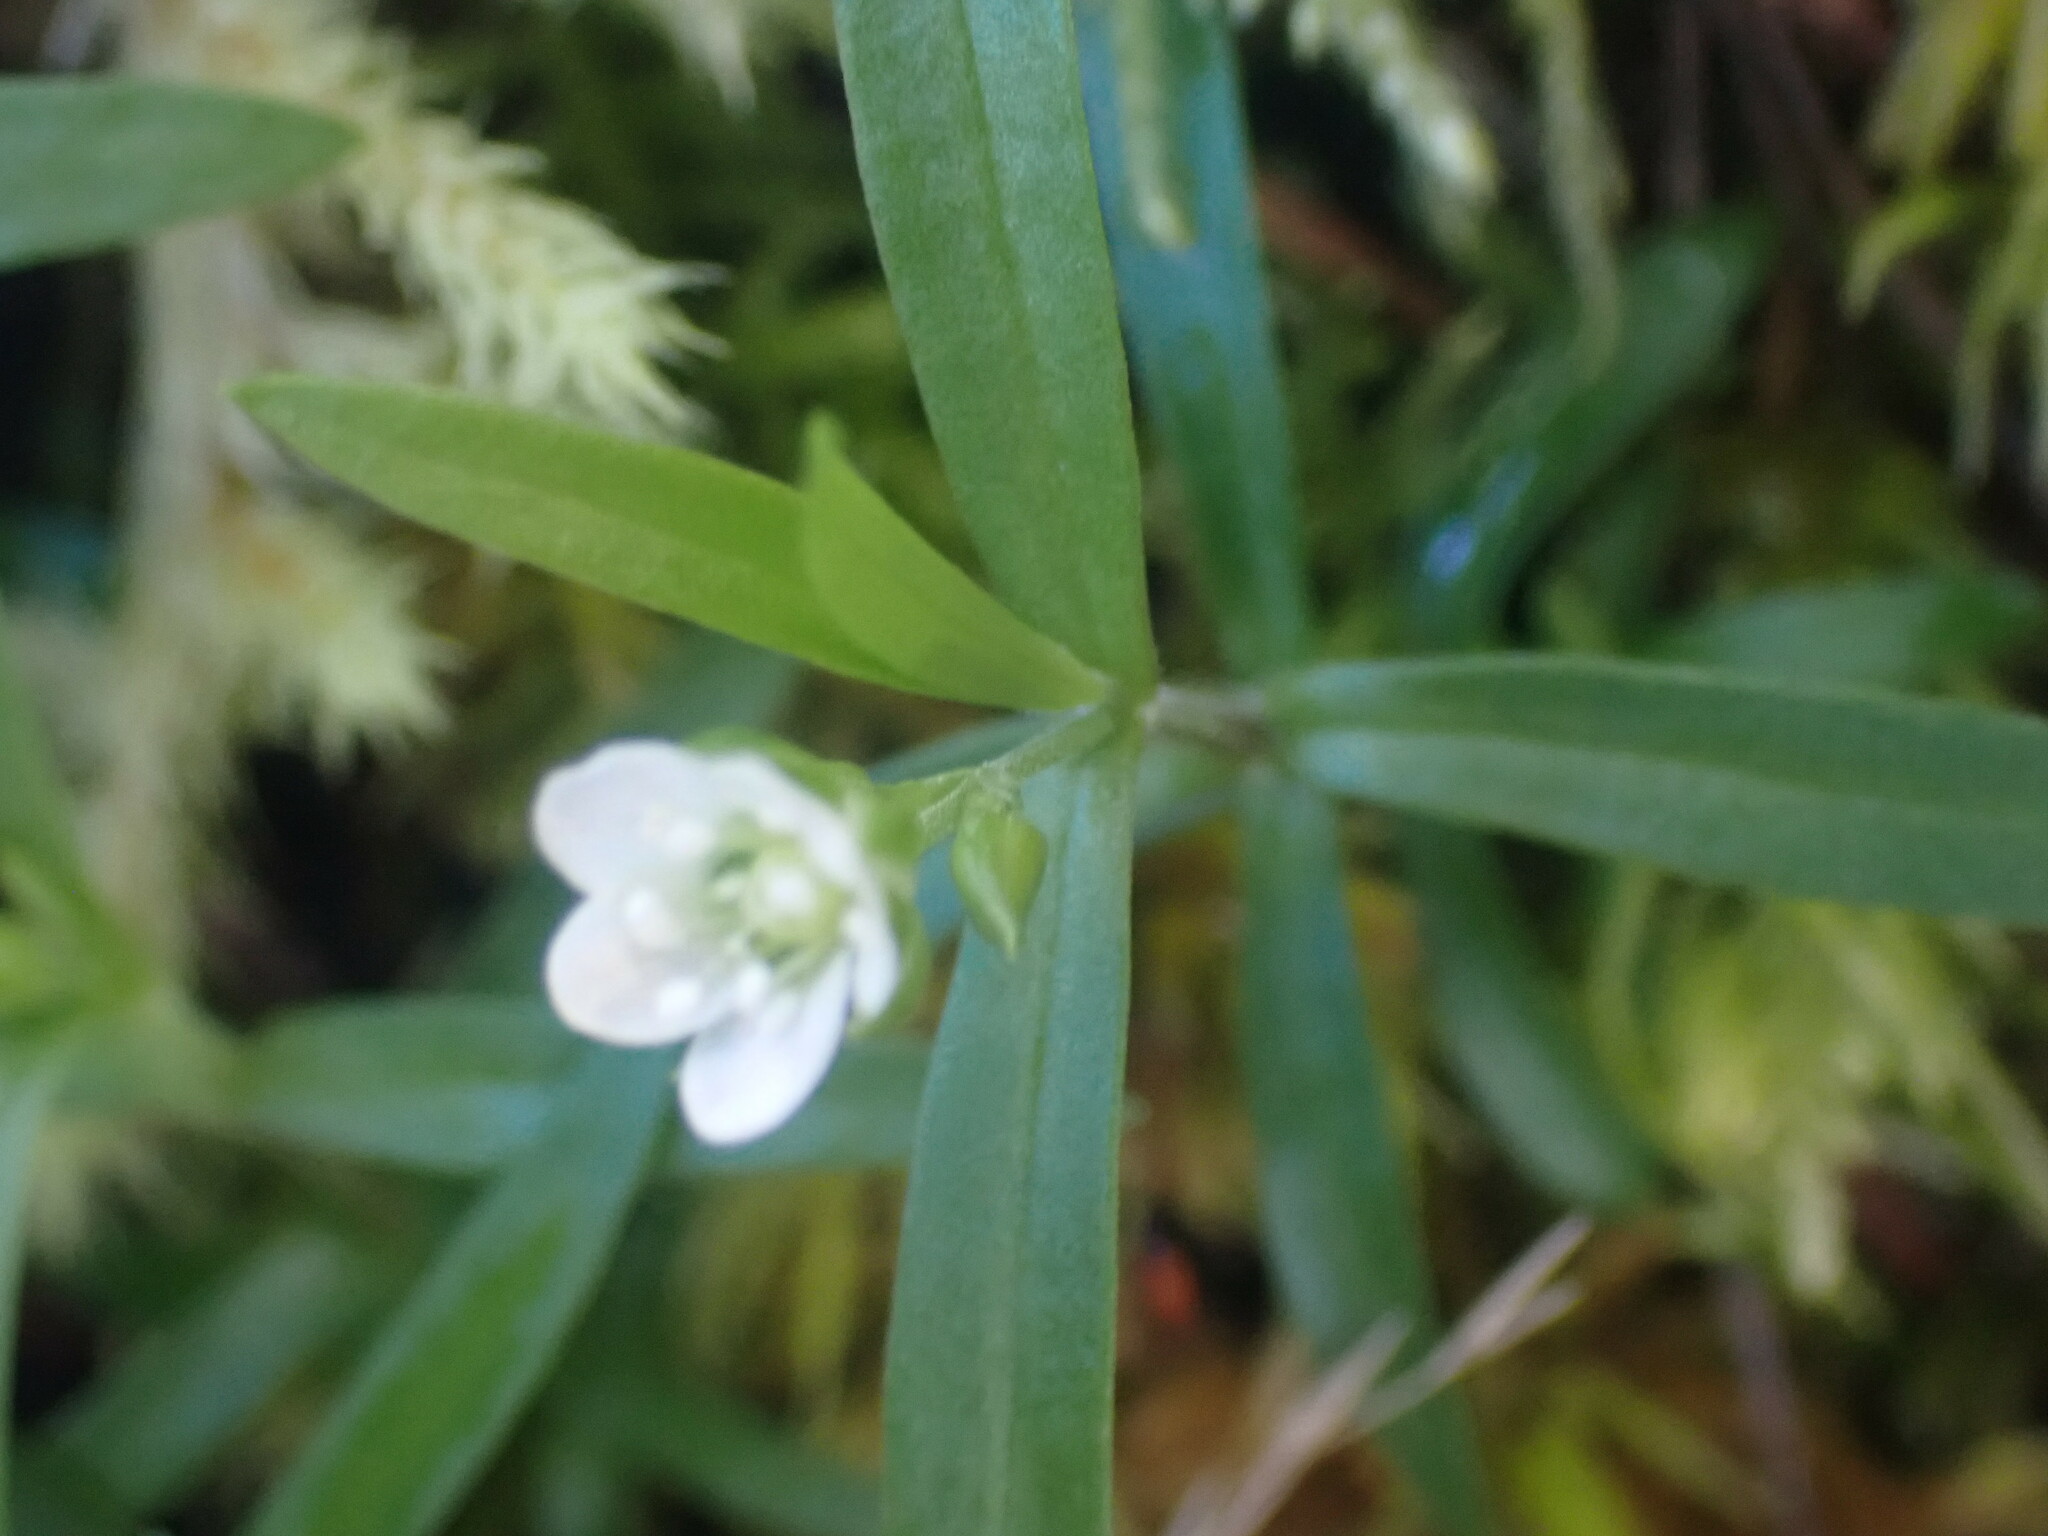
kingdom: Plantae
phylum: Tracheophyta
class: Magnoliopsida
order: Caryophyllales
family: Caryophyllaceae
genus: Moehringia
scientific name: Moehringia macrophylla
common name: Big-leaf sandwort
